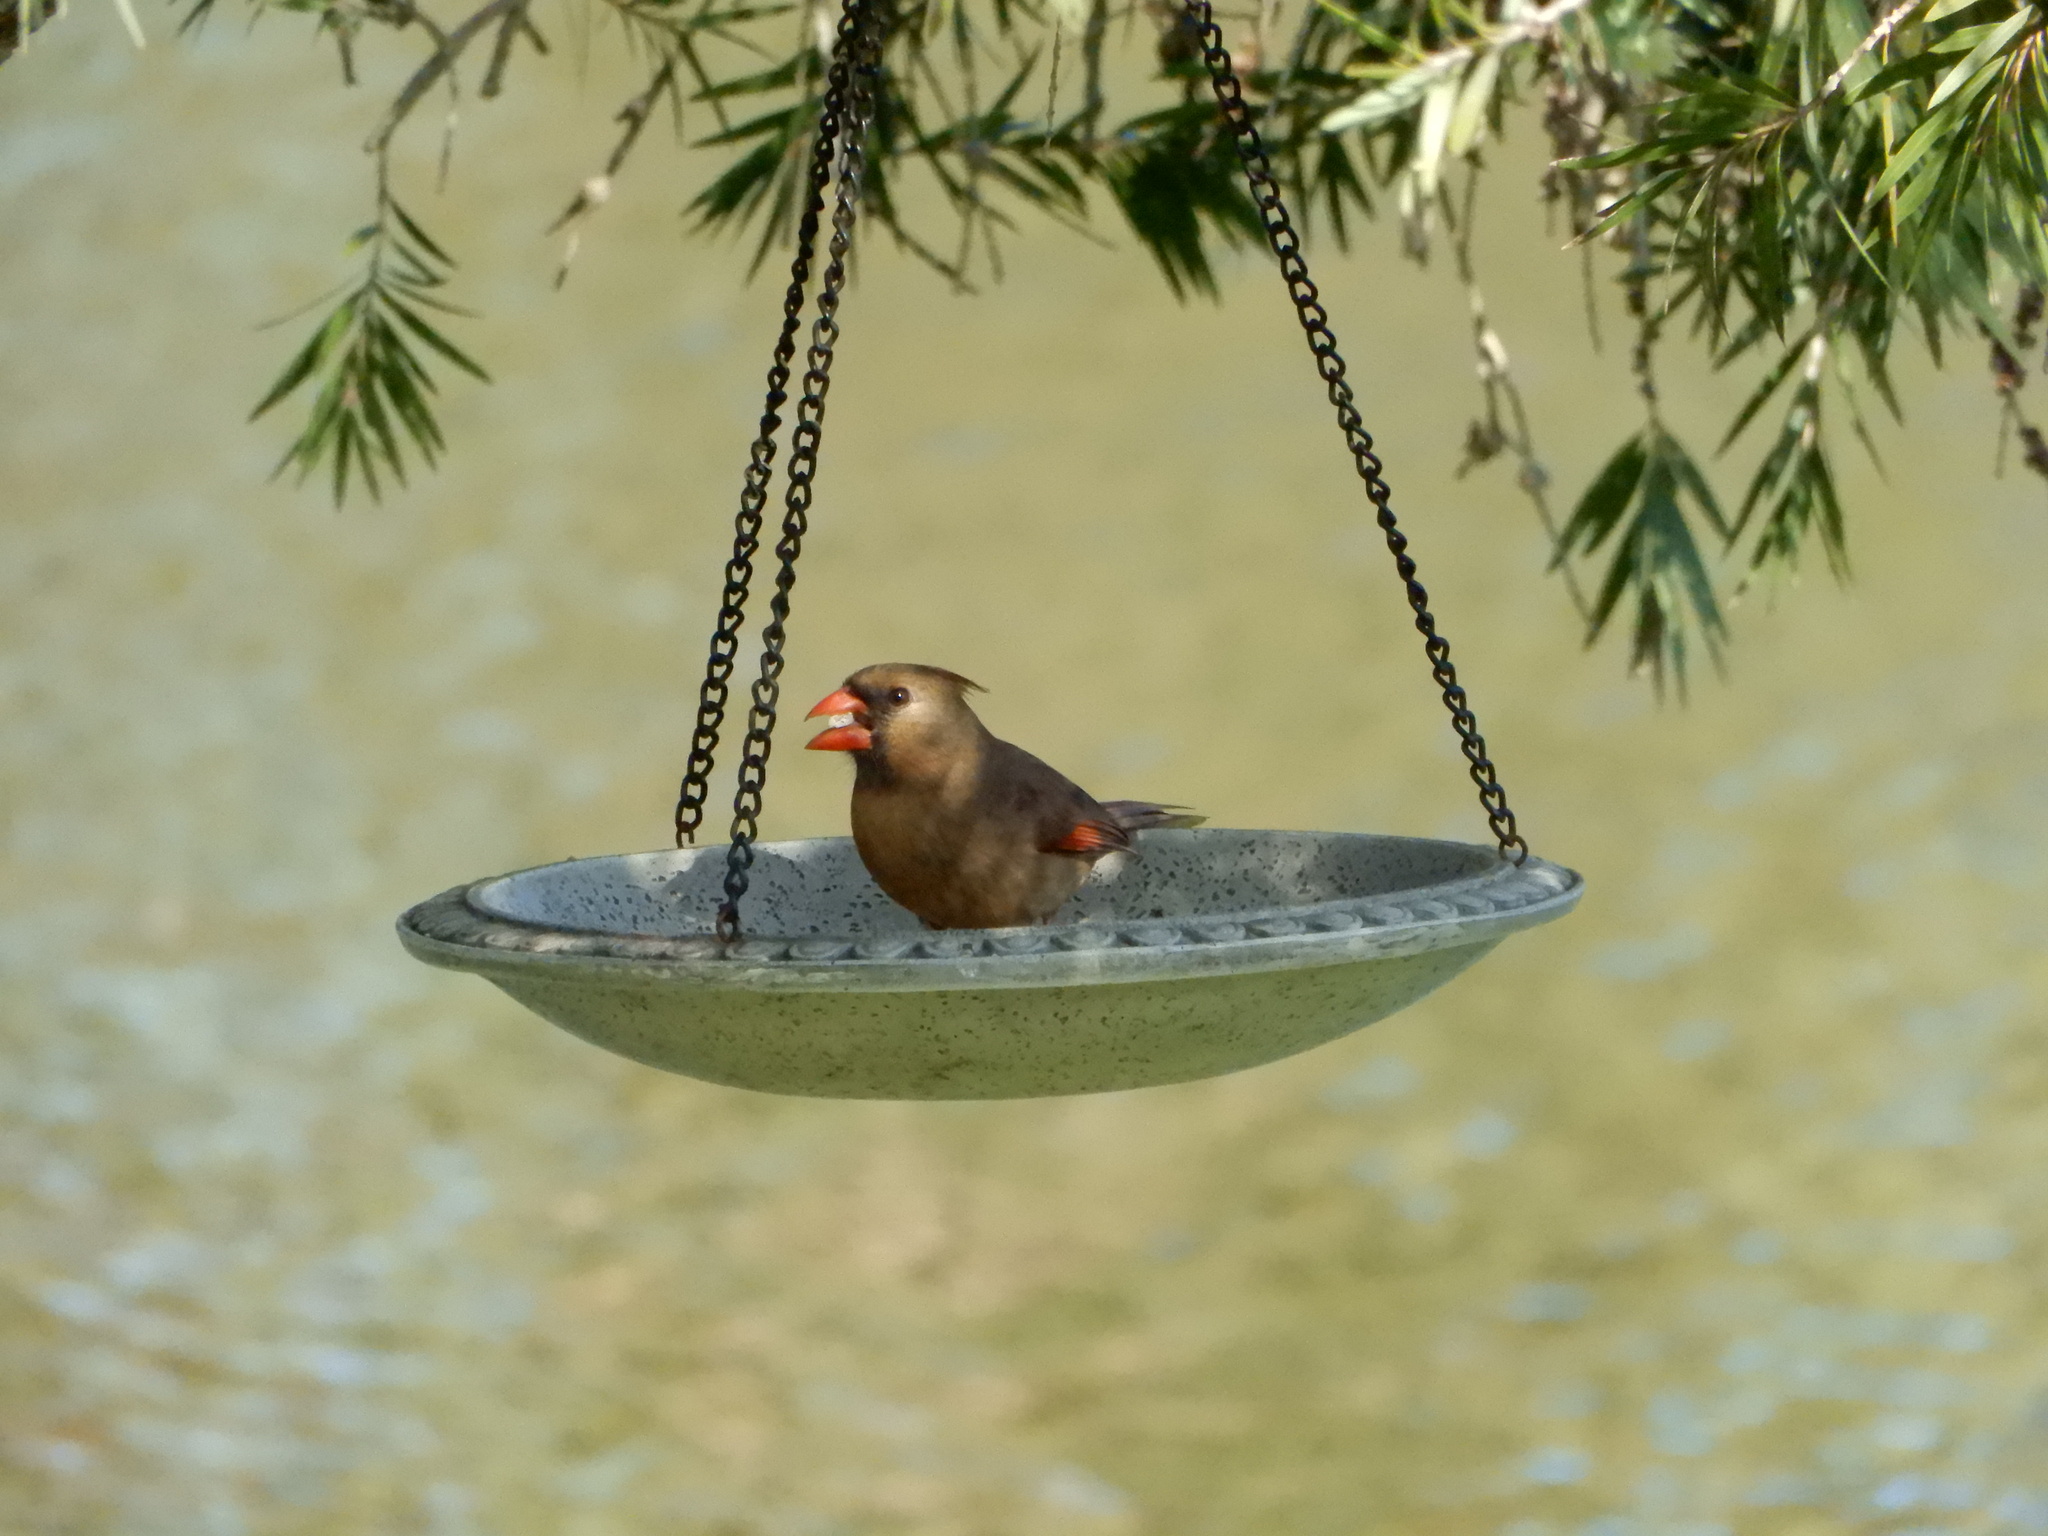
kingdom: Animalia
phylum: Chordata
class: Aves
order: Passeriformes
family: Cardinalidae
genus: Cardinalis
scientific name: Cardinalis cardinalis
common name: Northern cardinal
